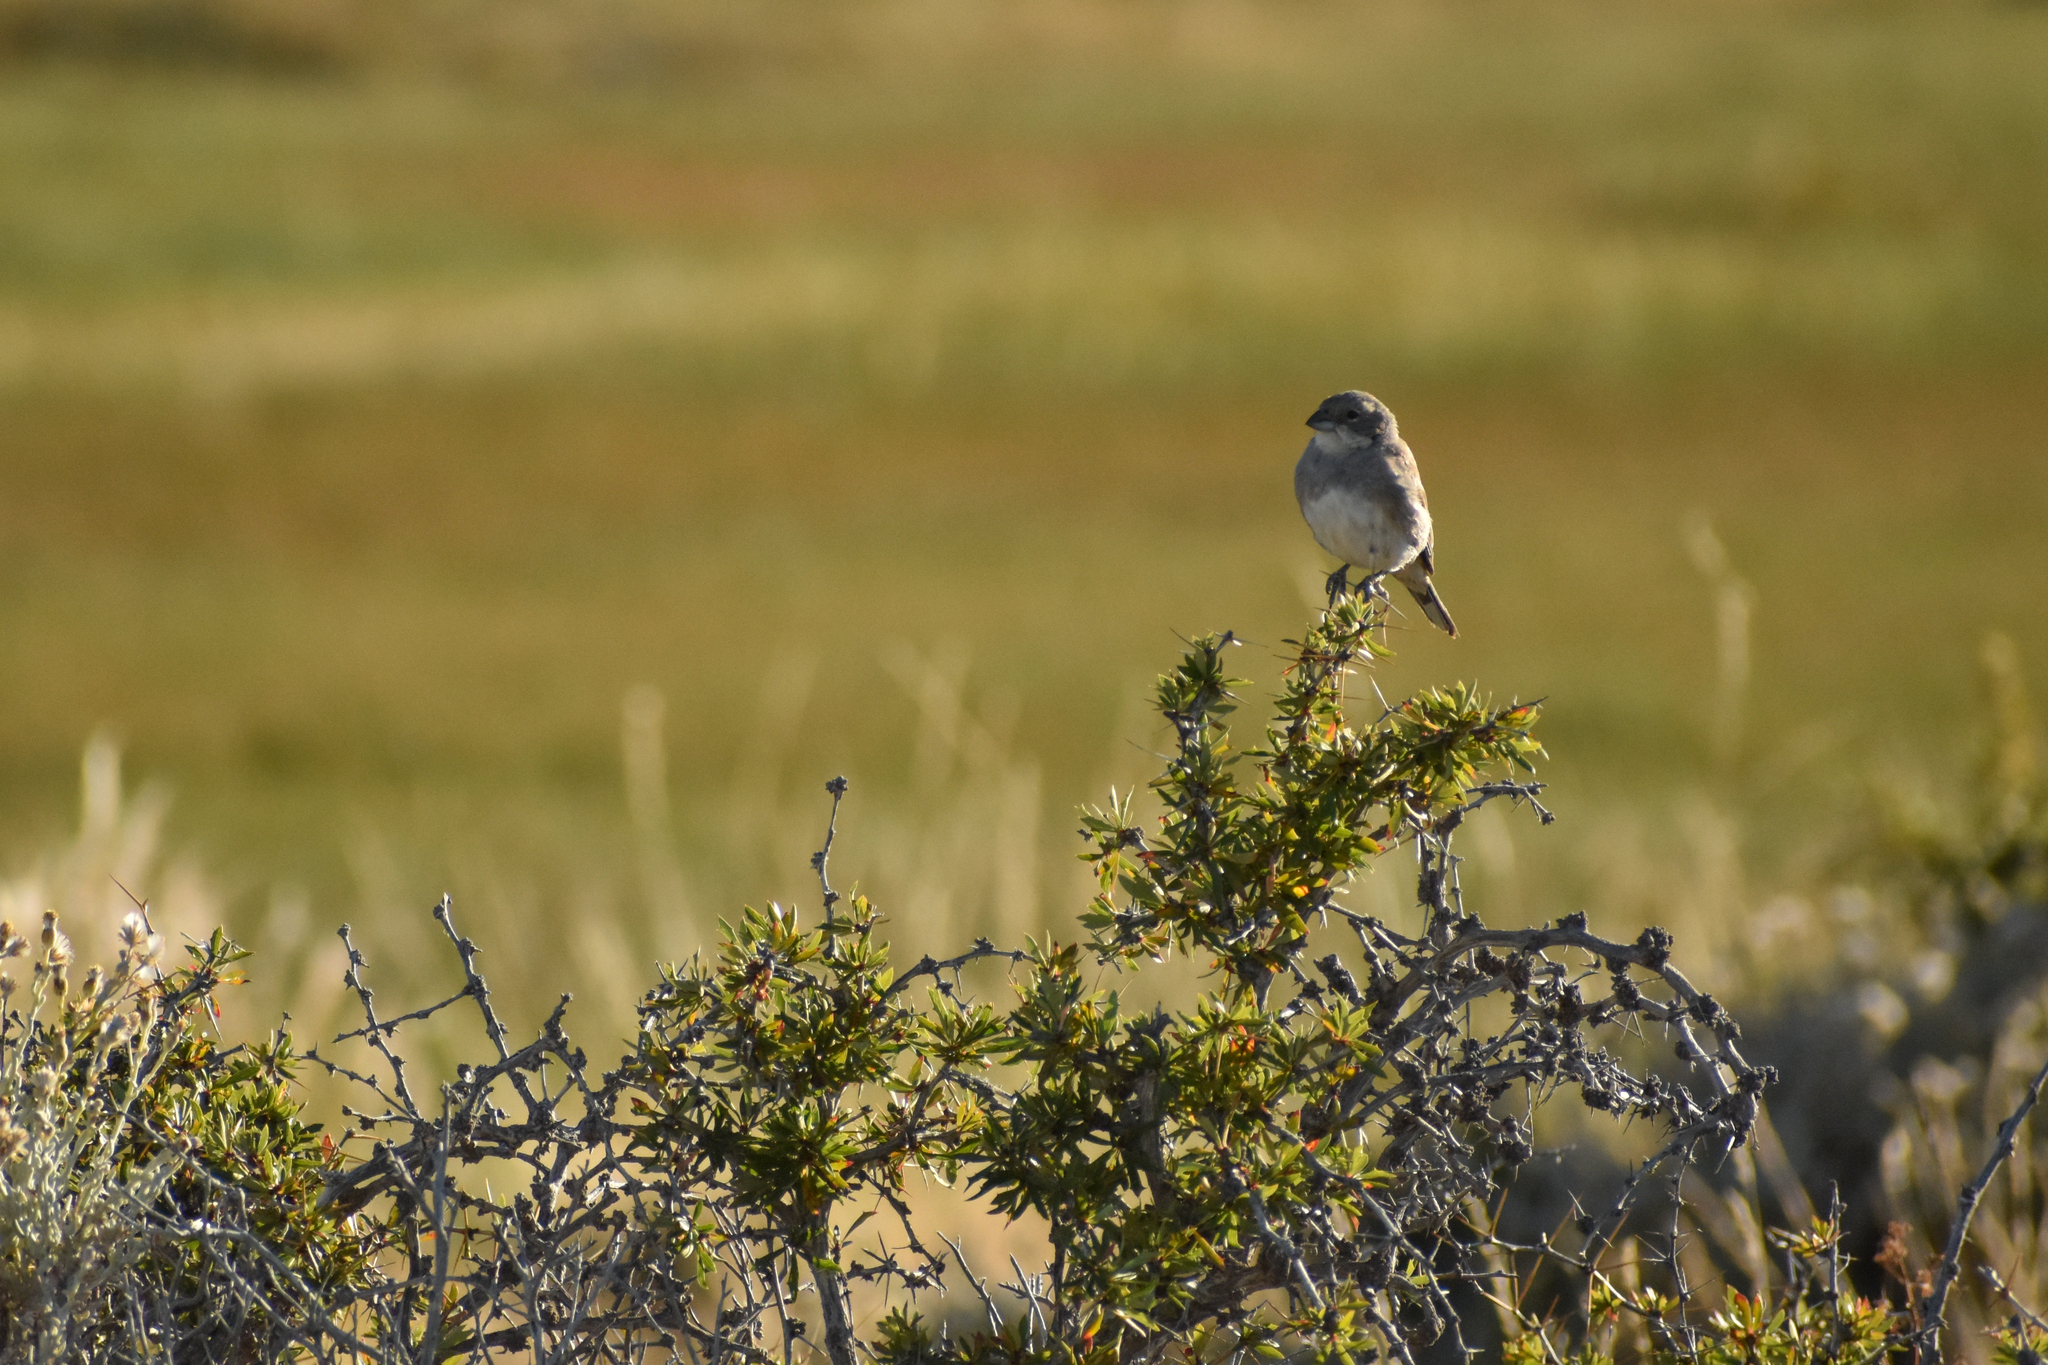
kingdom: Animalia
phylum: Chordata
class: Aves
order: Passeriformes
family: Thraupidae
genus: Diuca
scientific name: Diuca diuca
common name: Common diuca finch
